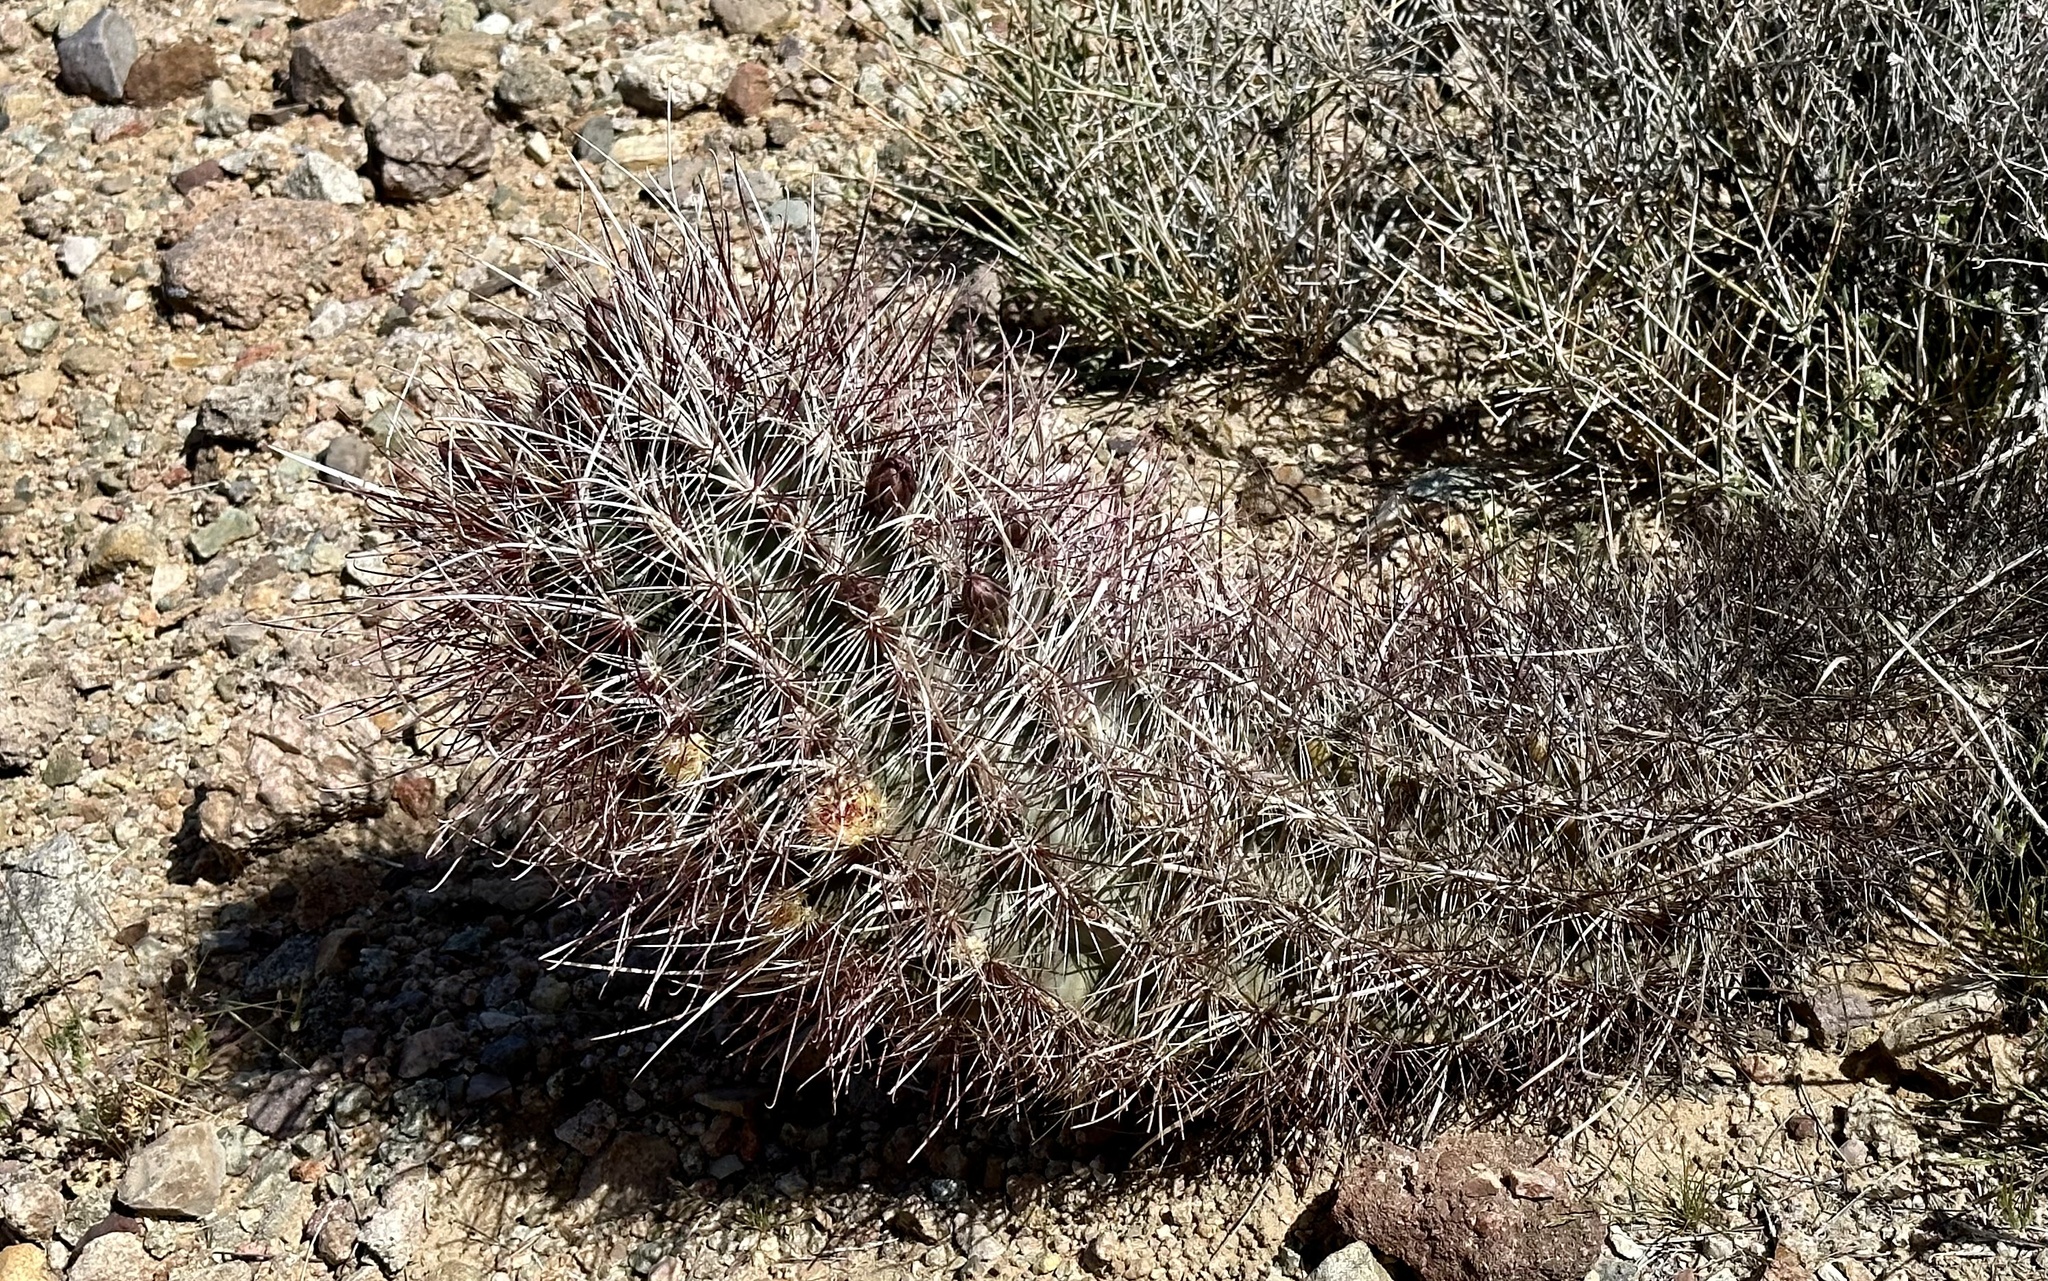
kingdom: Plantae
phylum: Tracheophyta
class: Magnoliopsida
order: Caryophyllales
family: Cactaceae
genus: Sclerocactus
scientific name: Sclerocactus polyancistrus
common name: Mohave fishhook cactus
